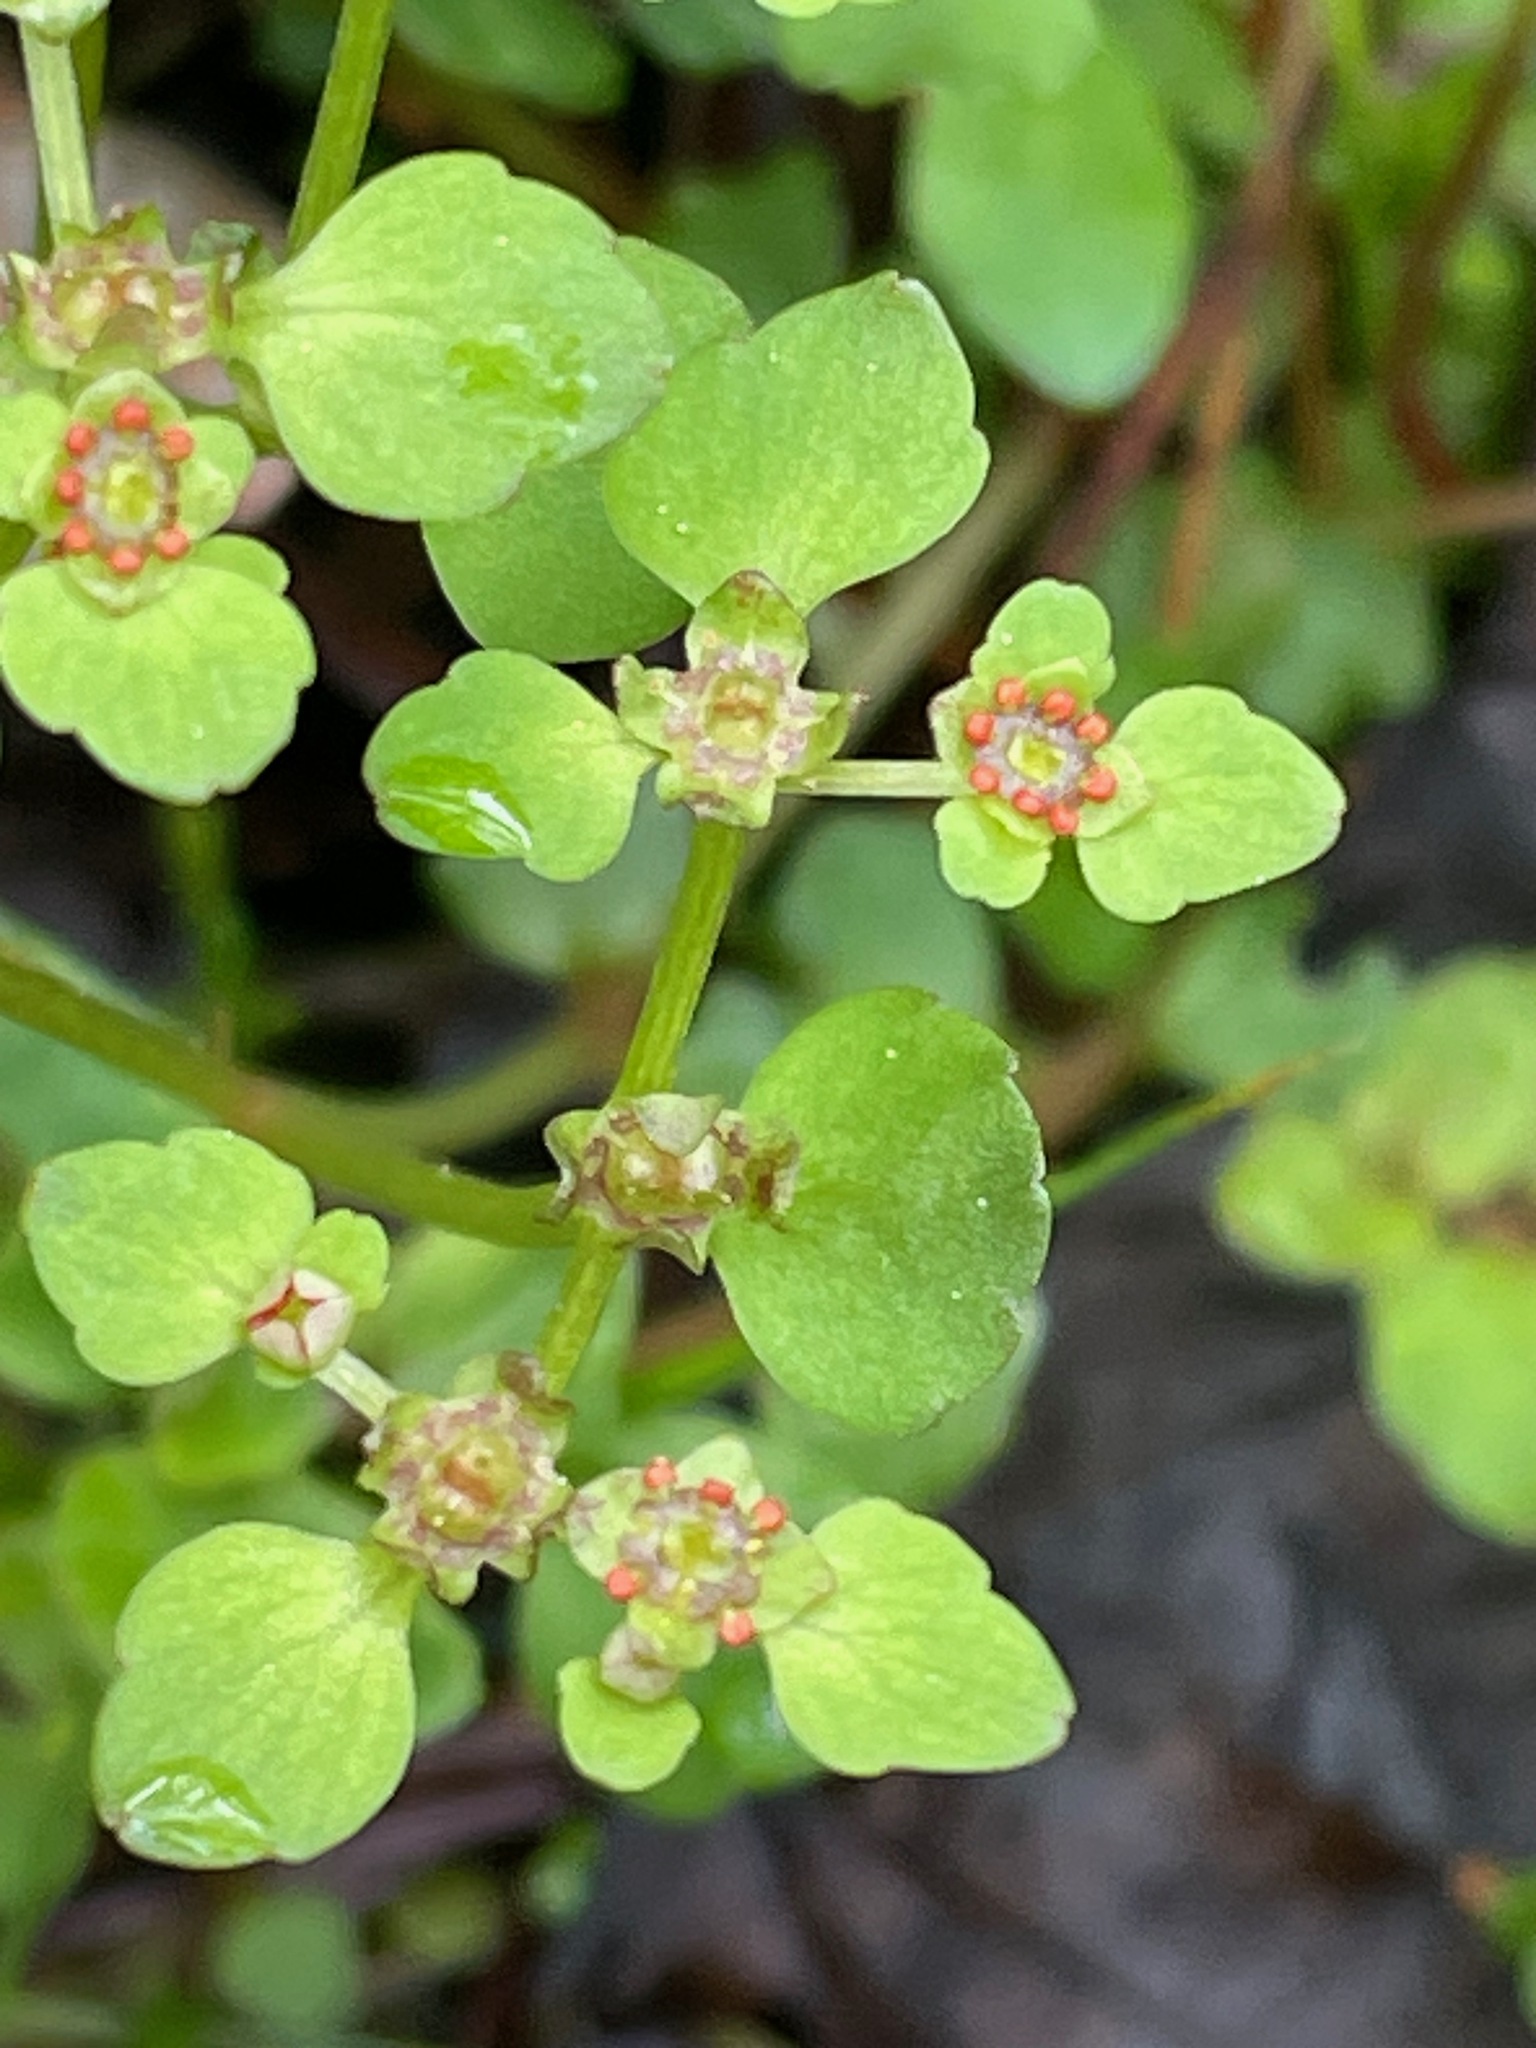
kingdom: Plantae
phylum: Tracheophyta
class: Magnoliopsida
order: Saxifragales
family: Saxifragaceae
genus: Chrysosplenium
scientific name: Chrysosplenium americanum
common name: American golden-saxifrage
